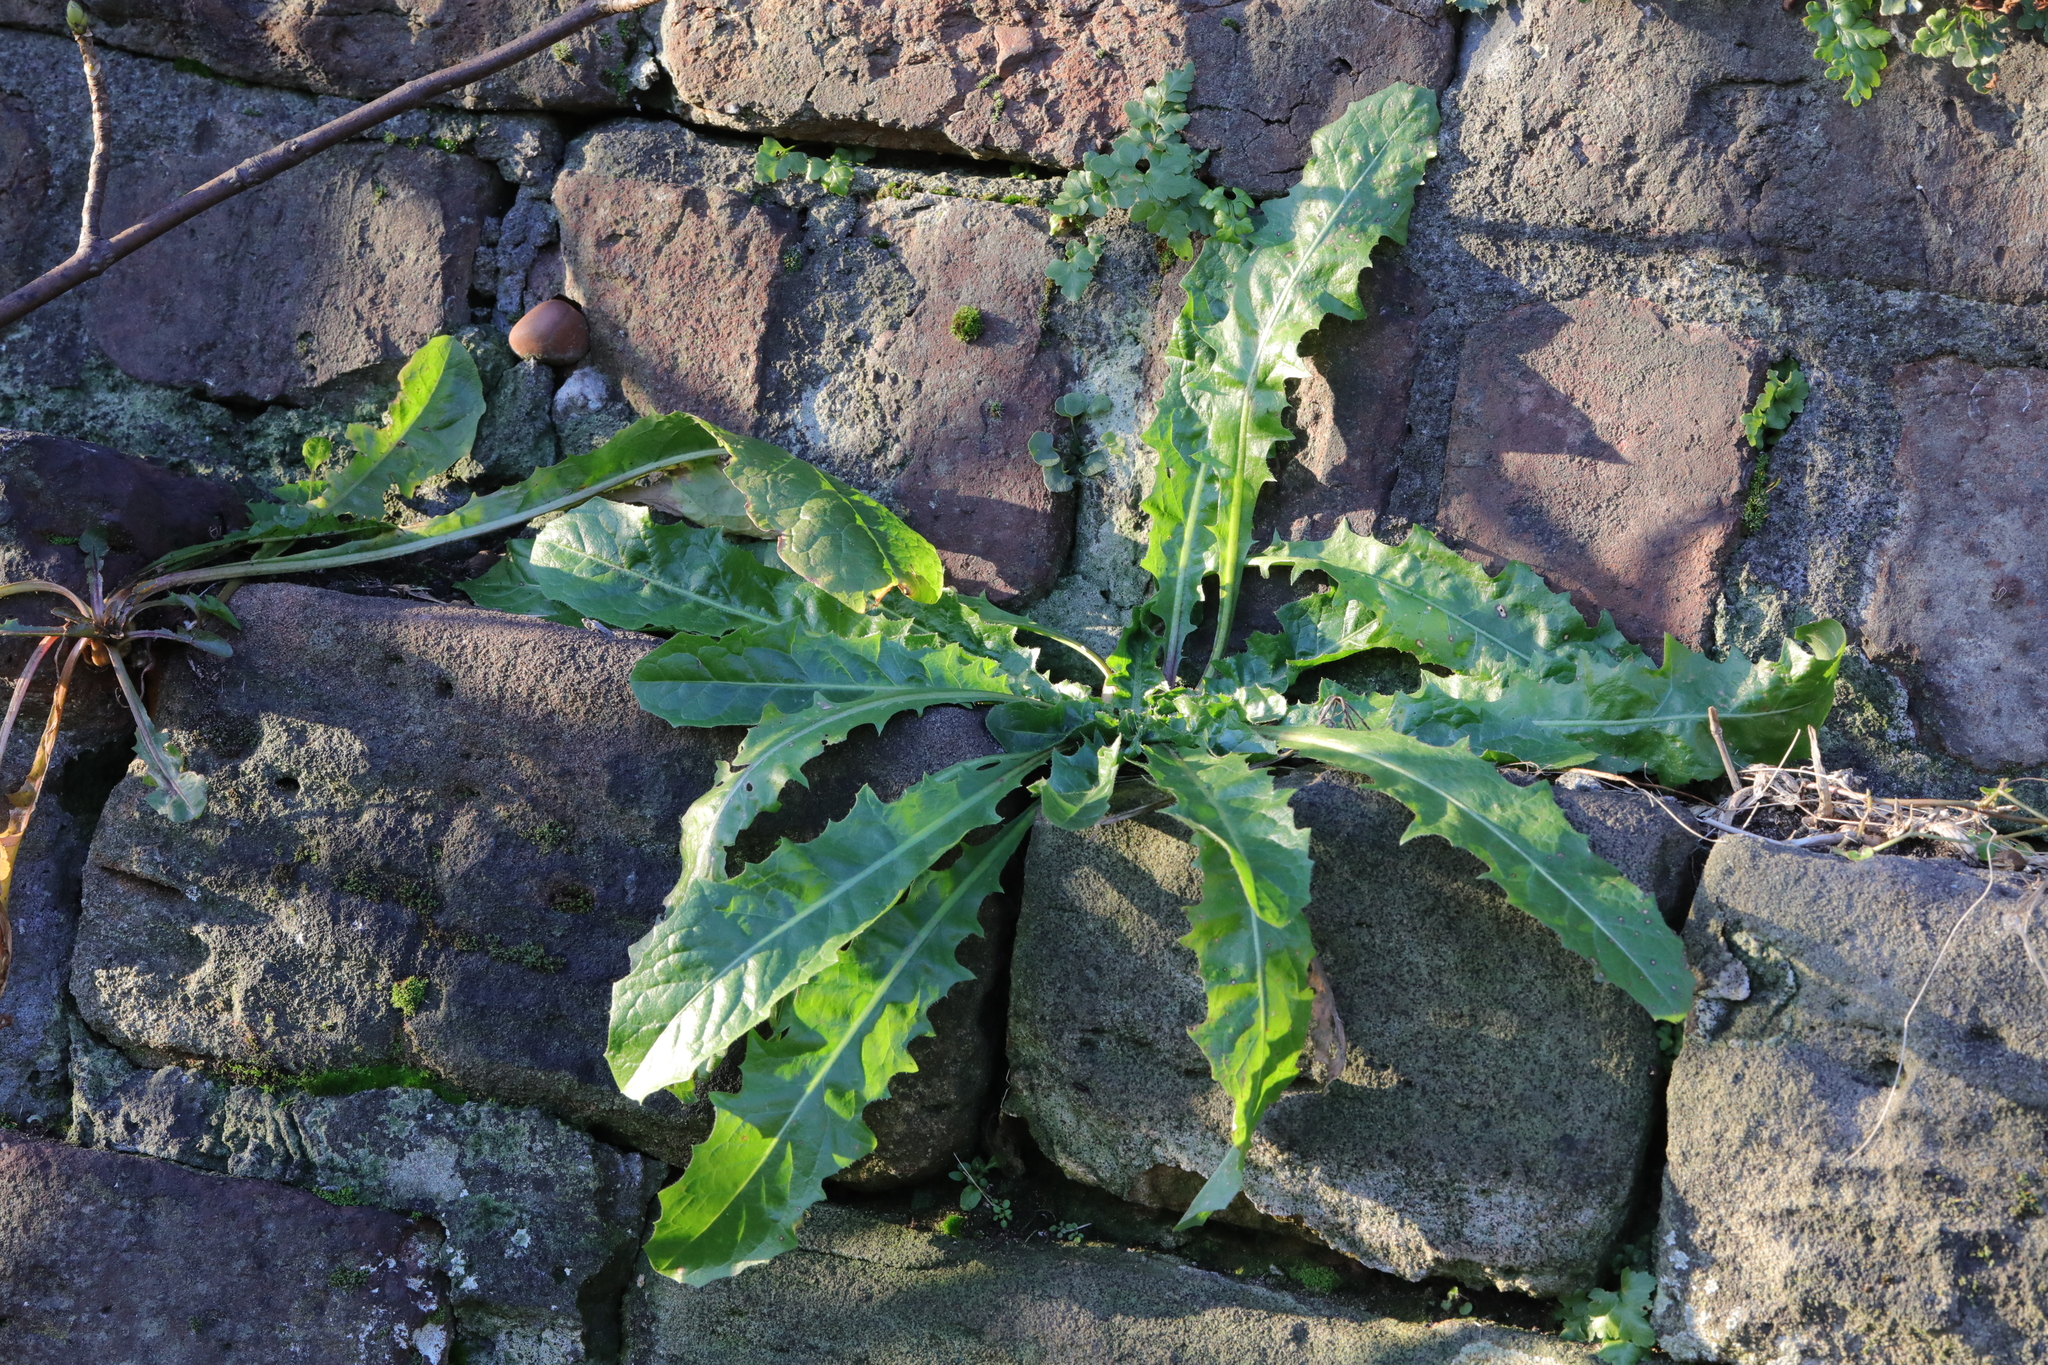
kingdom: Plantae
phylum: Tracheophyta
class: Magnoliopsida
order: Asterales
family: Asteraceae
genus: Taraxacum
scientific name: Taraxacum officinale
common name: Common dandelion
